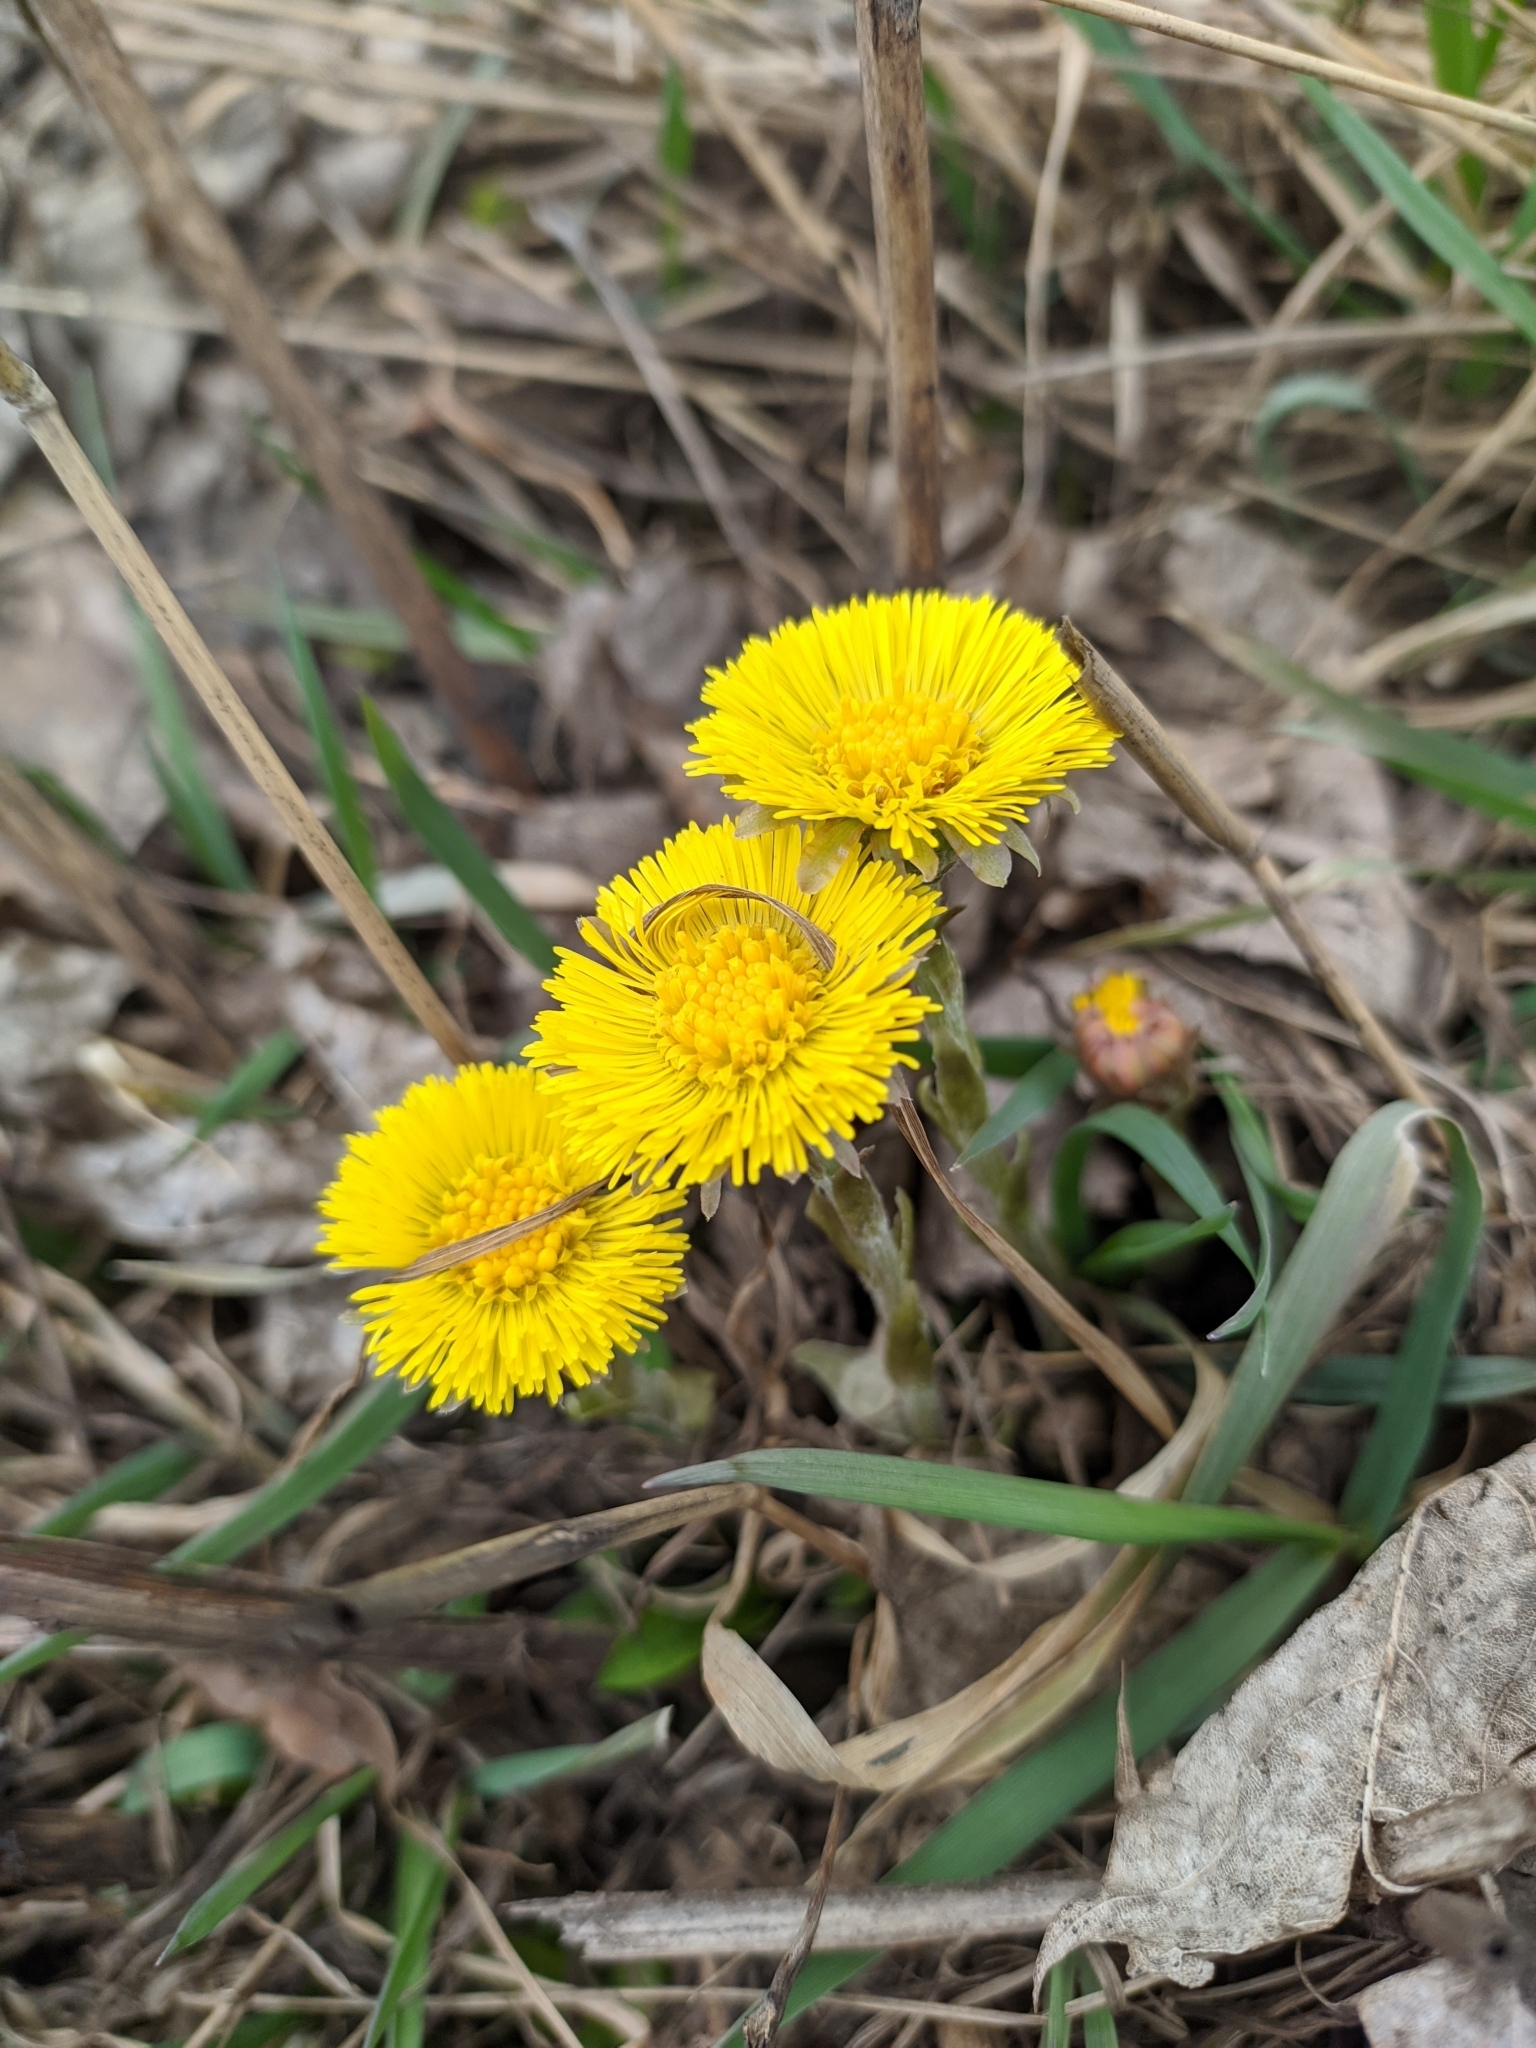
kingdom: Plantae
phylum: Tracheophyta
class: Magnoliopsida
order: Asterales
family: Asteraceae
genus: Tussilago
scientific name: Tussilago farfara
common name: Coltsfoot
